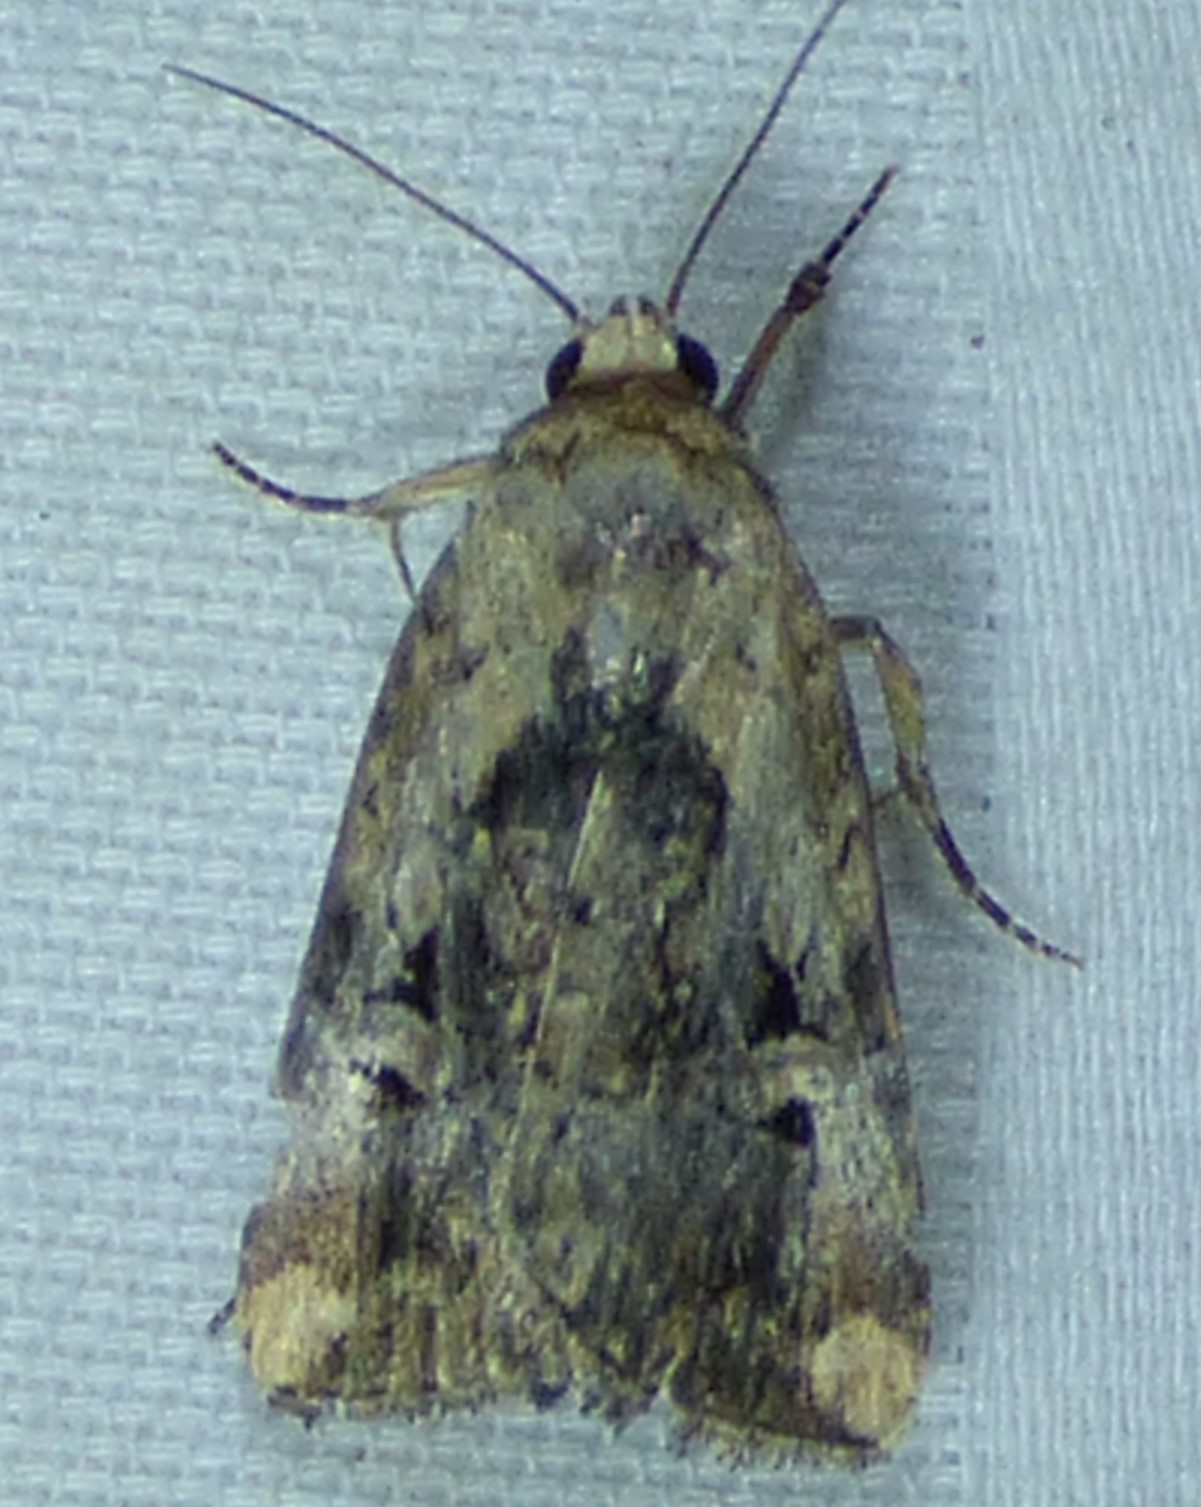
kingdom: Animalia
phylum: Arthropoda
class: Insecta
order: Lepidoptera
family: Noctuidae
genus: Elaphria
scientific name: Elaphria chalcedonia
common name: Chalcedony midget
